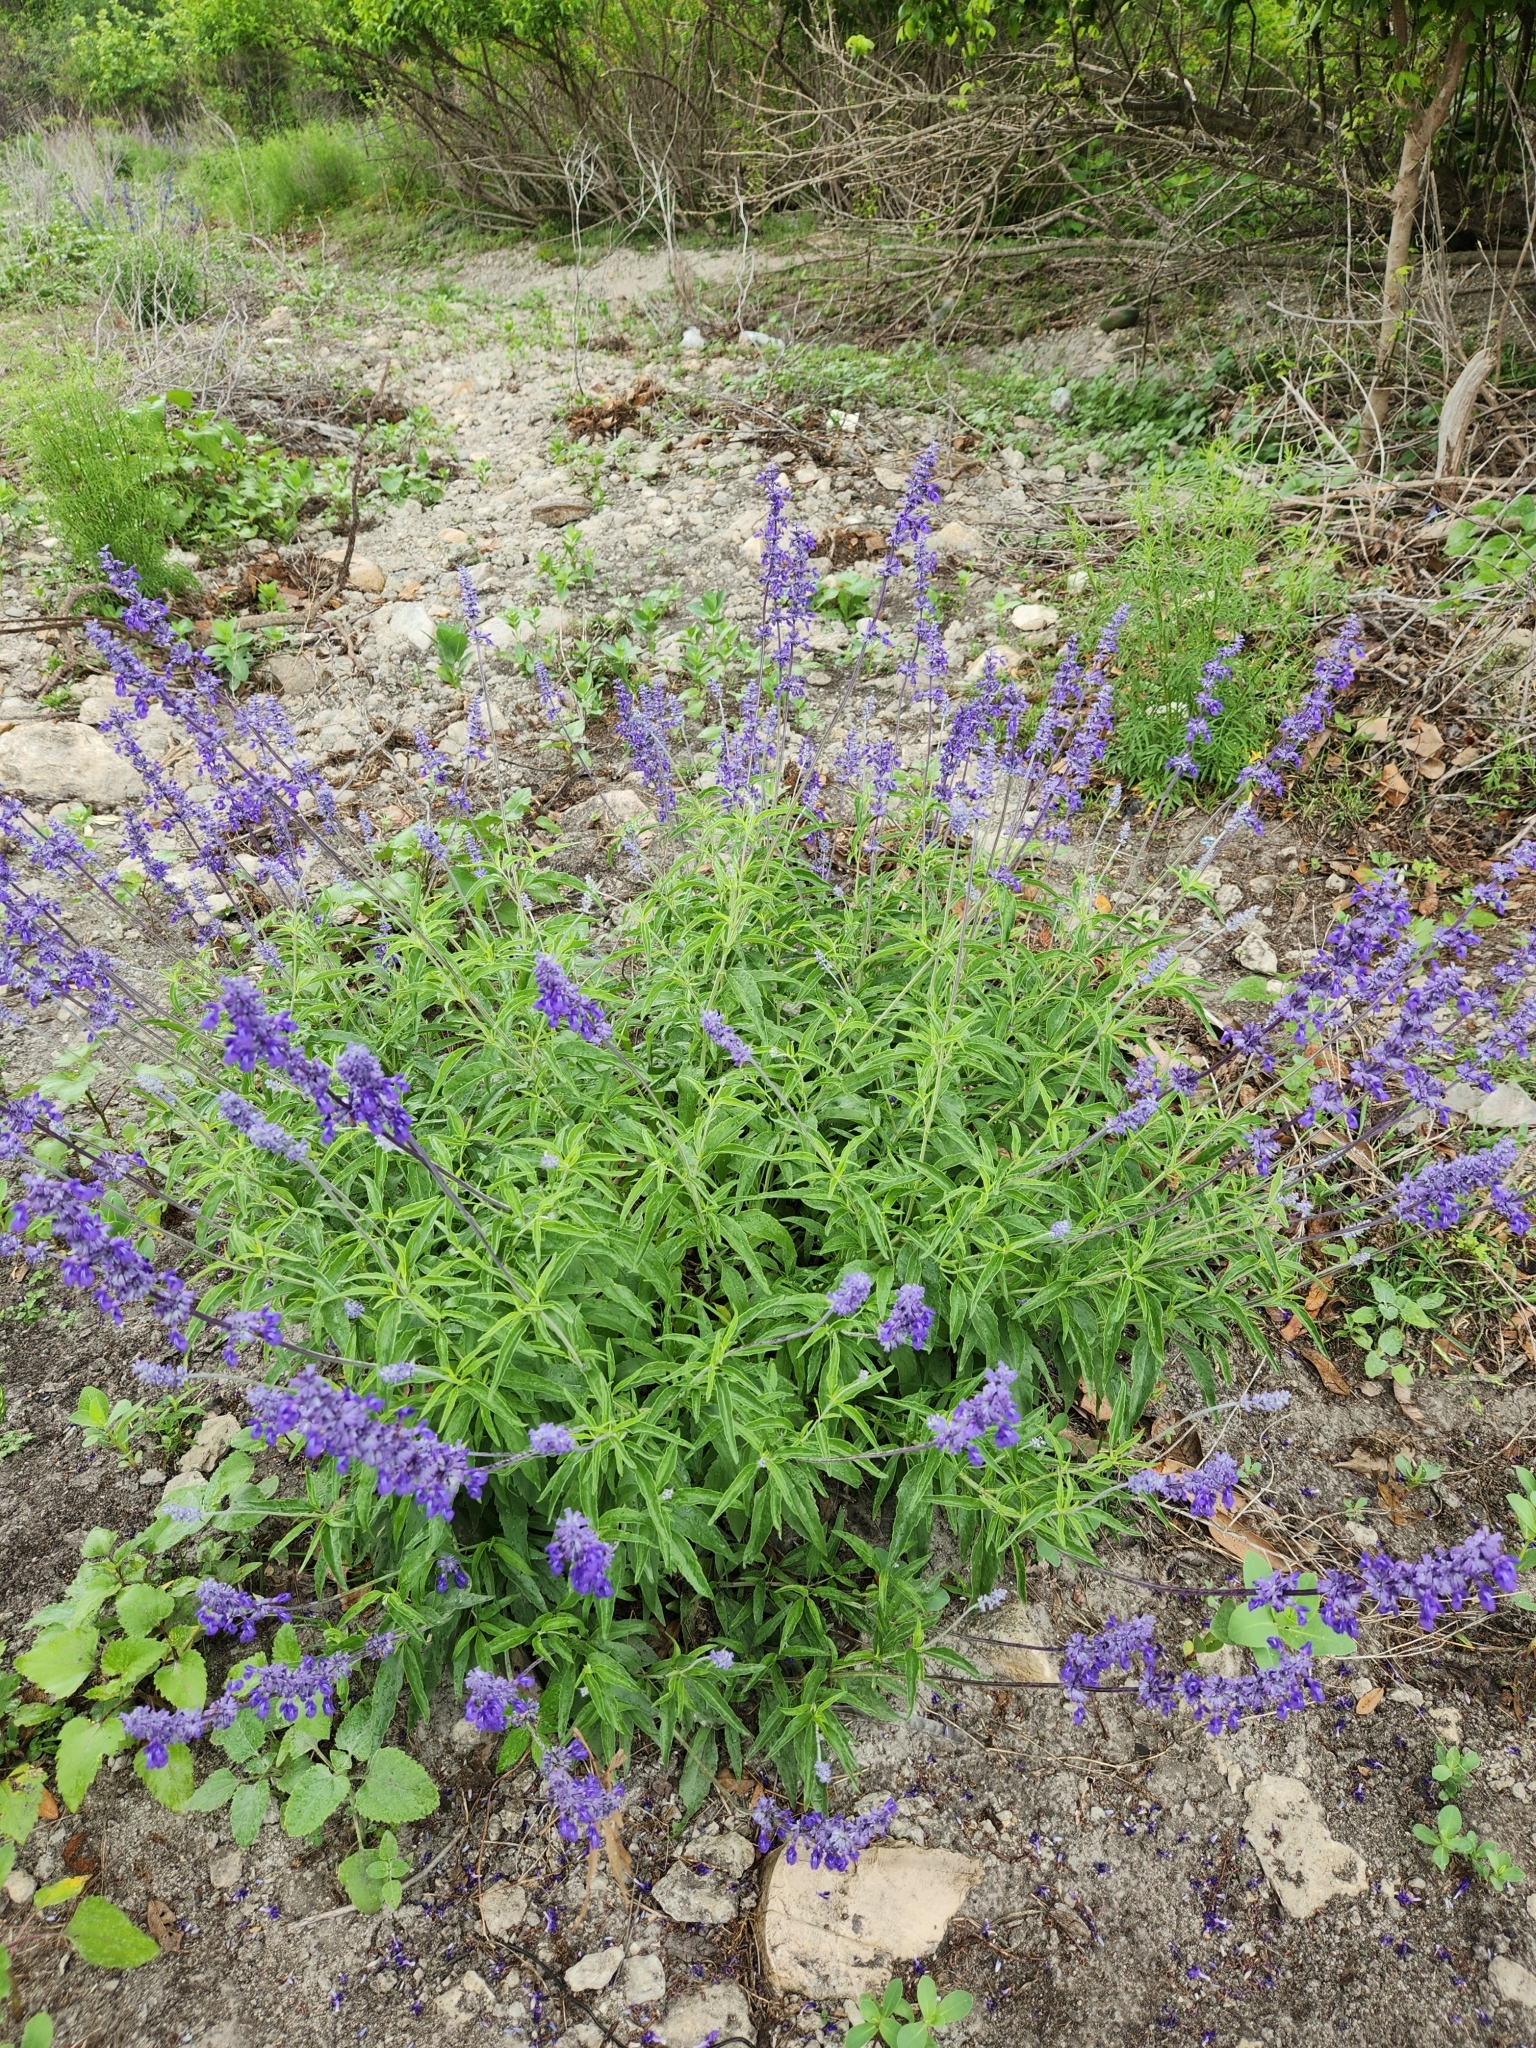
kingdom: Plantae
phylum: Tracheophyta
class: Magnoliopsida
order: Lamiales
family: Lamiaceae
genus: Salvia
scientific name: Salvia farinacea
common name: Mealy sage
